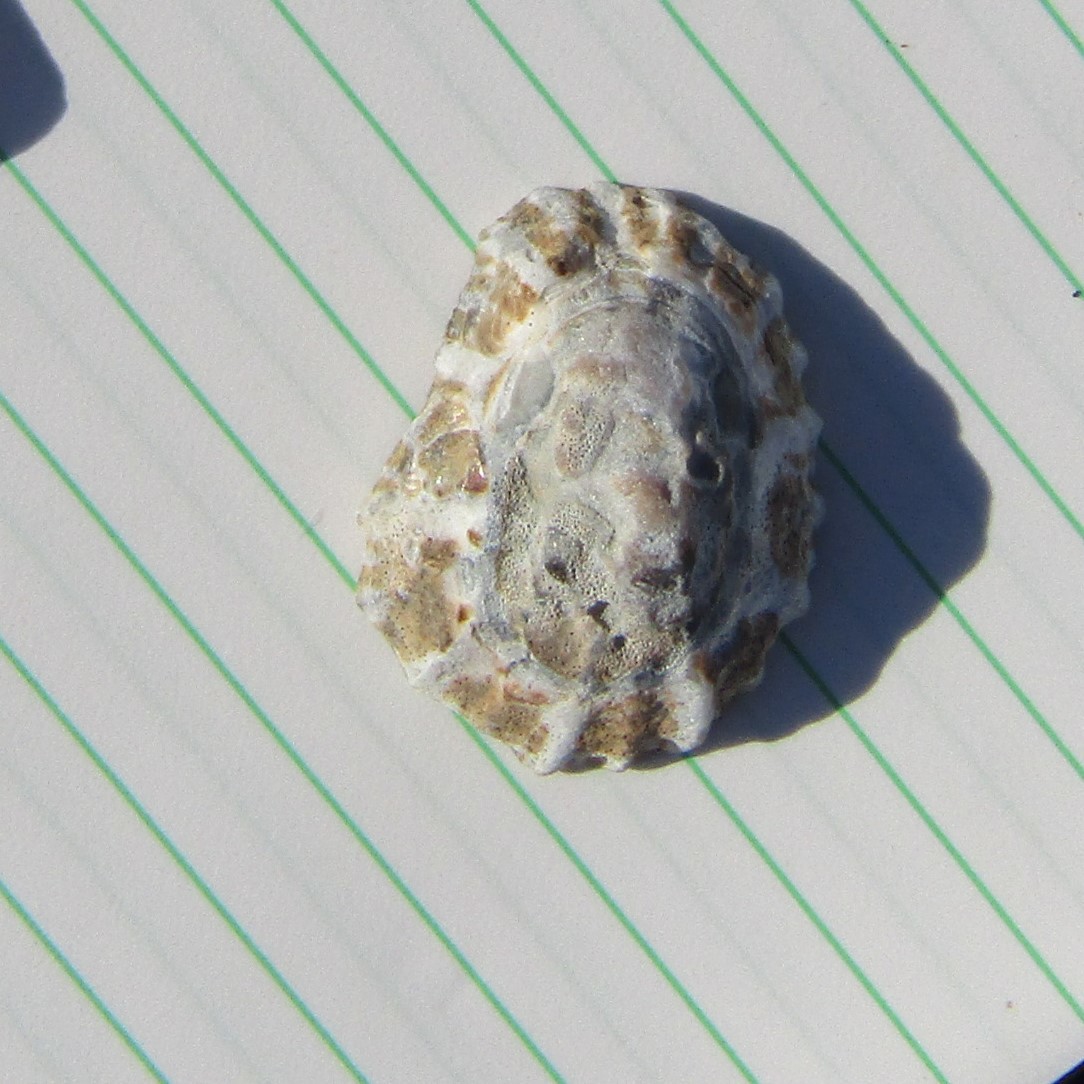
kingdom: Animalia
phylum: Mollusca
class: Gastropoda
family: Nacellidae
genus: Cellana
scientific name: Cellana ornata
